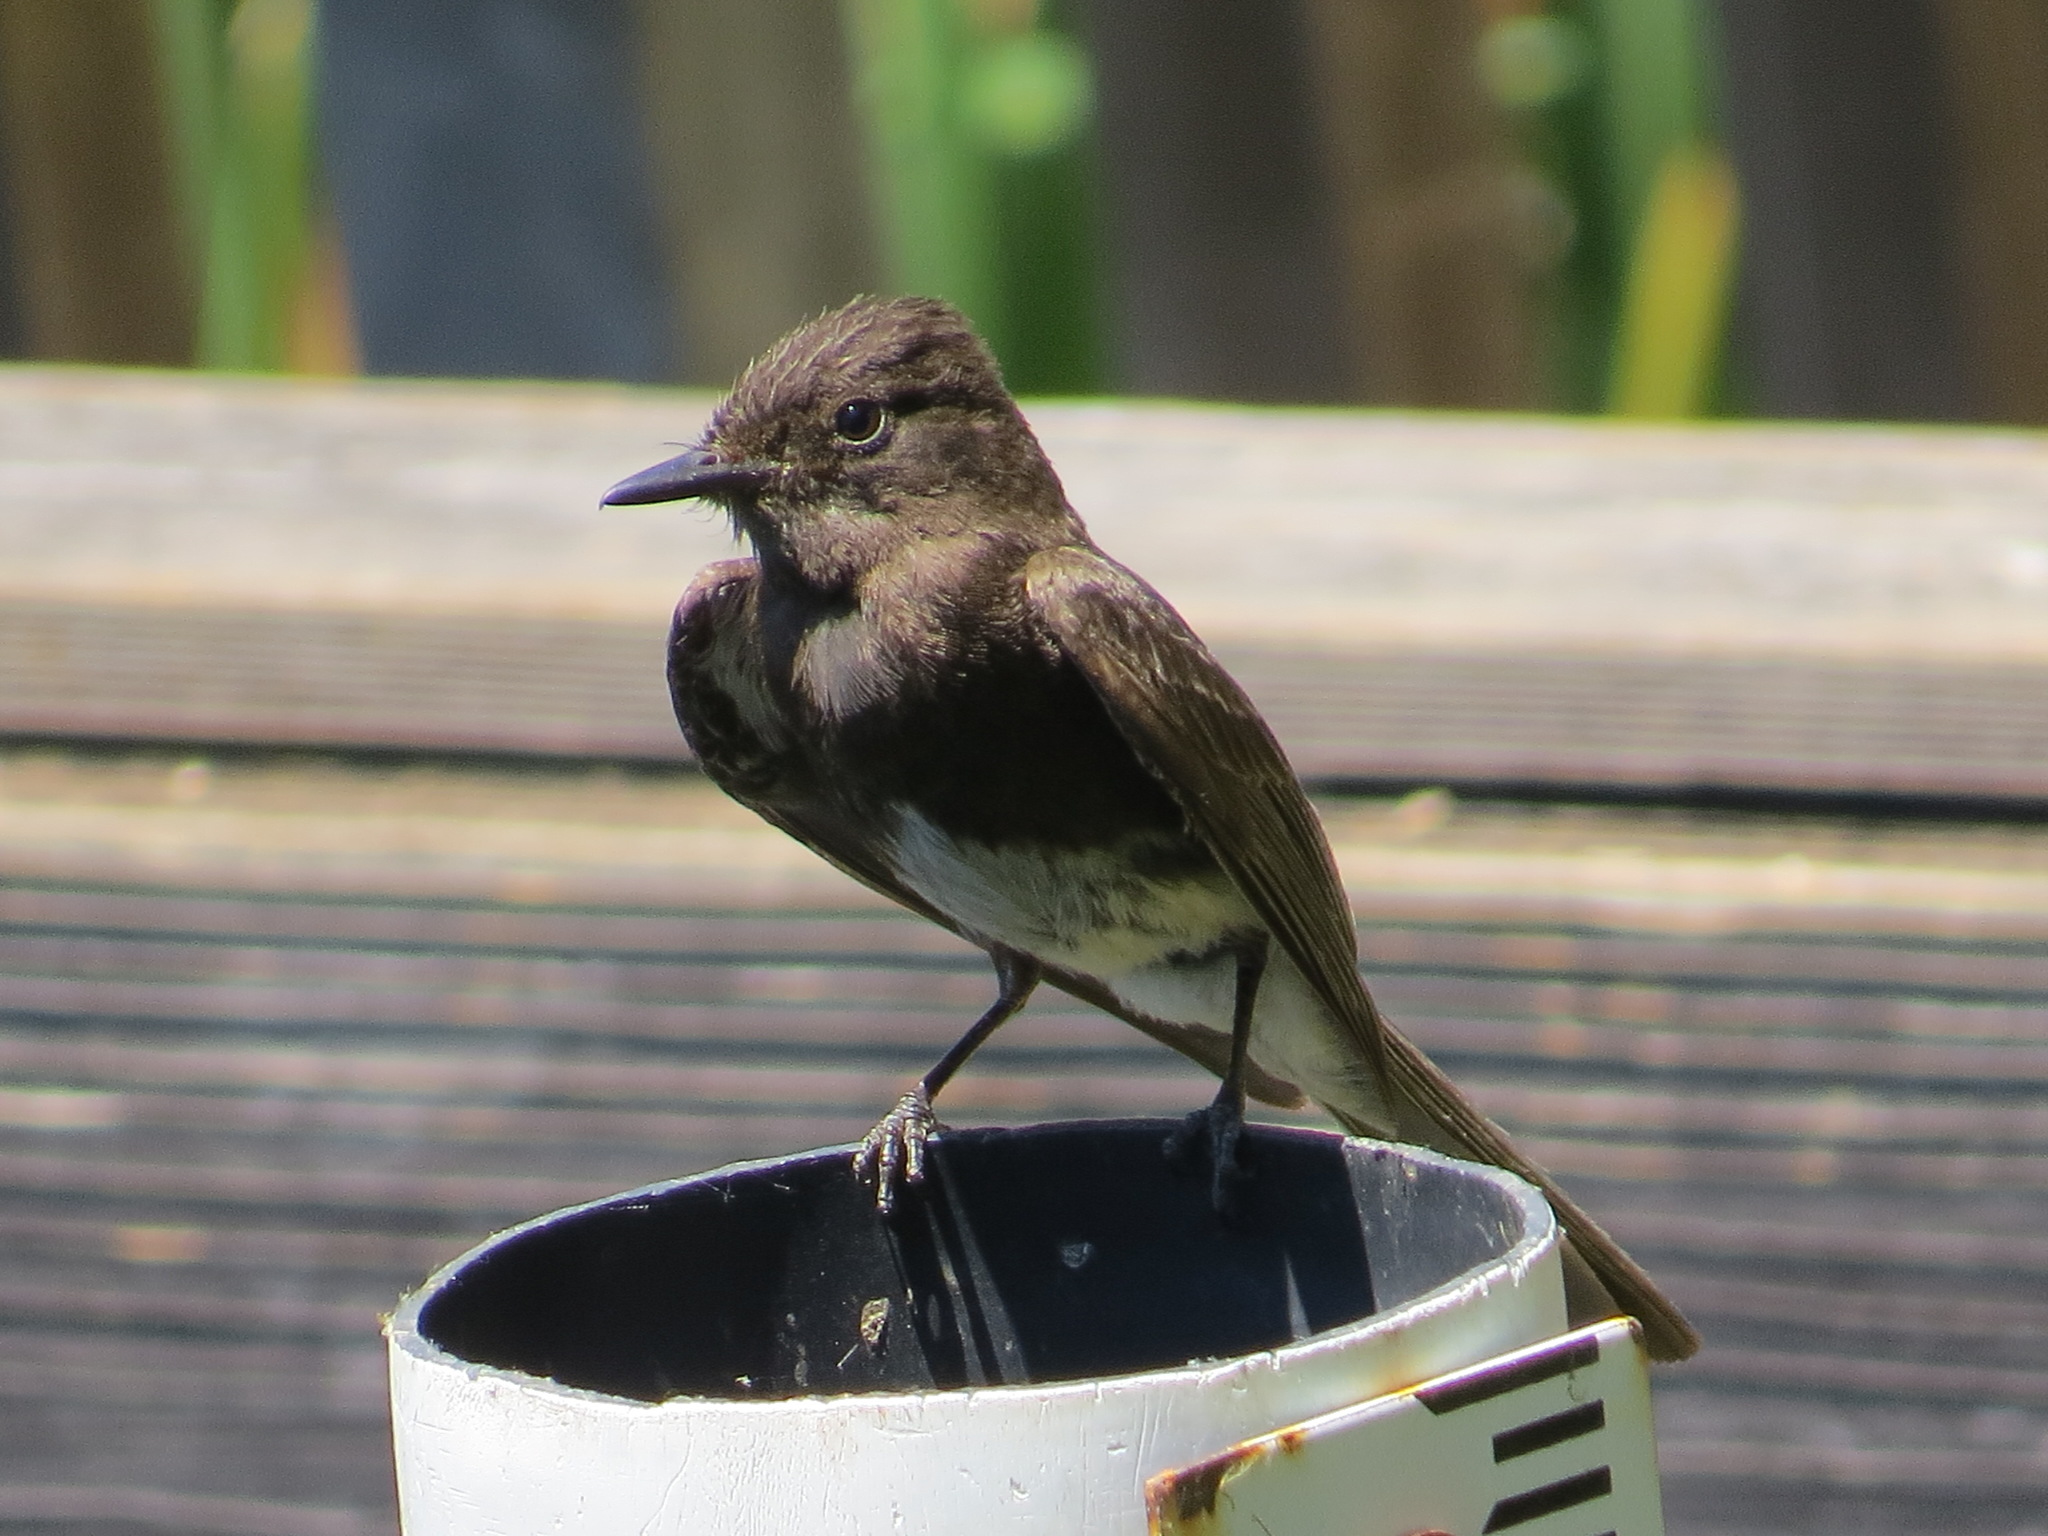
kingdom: Animalia
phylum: Chordata
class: Aves
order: Passeriformes
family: Tyrannidae
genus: Sayornis
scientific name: Sayornis nigricans
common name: Black phoebe
